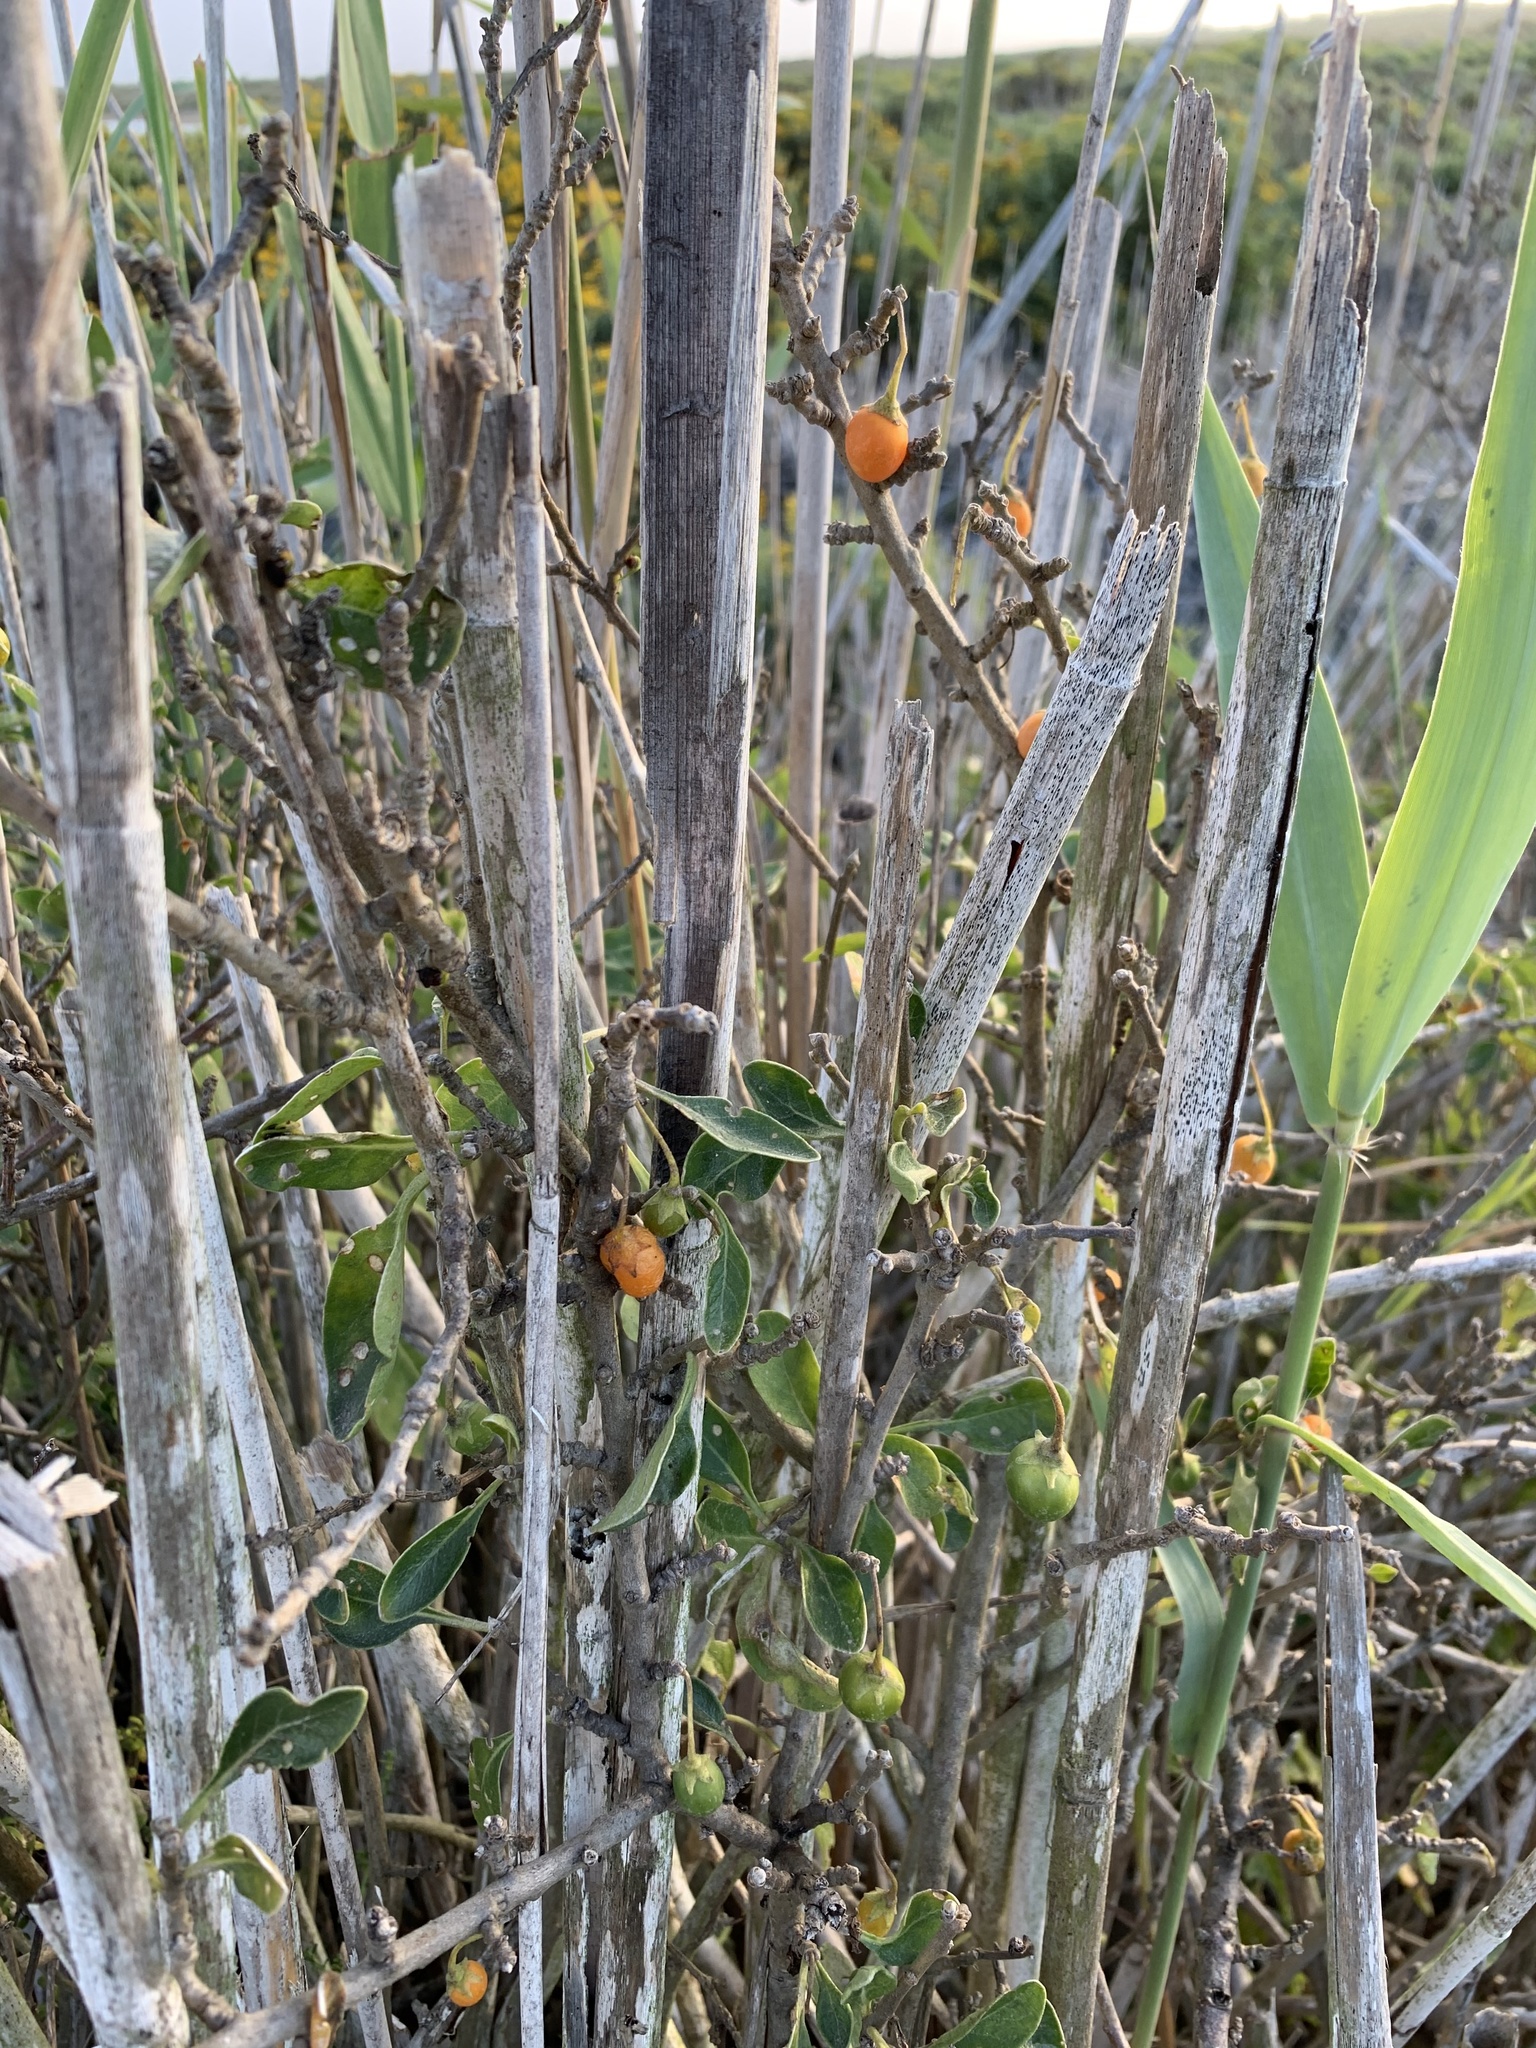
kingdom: Plantae
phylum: Tracheophyta
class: Magnoliopsida
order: Solanales
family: Solanaceae
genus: Solanum
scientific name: Solanum guineense
